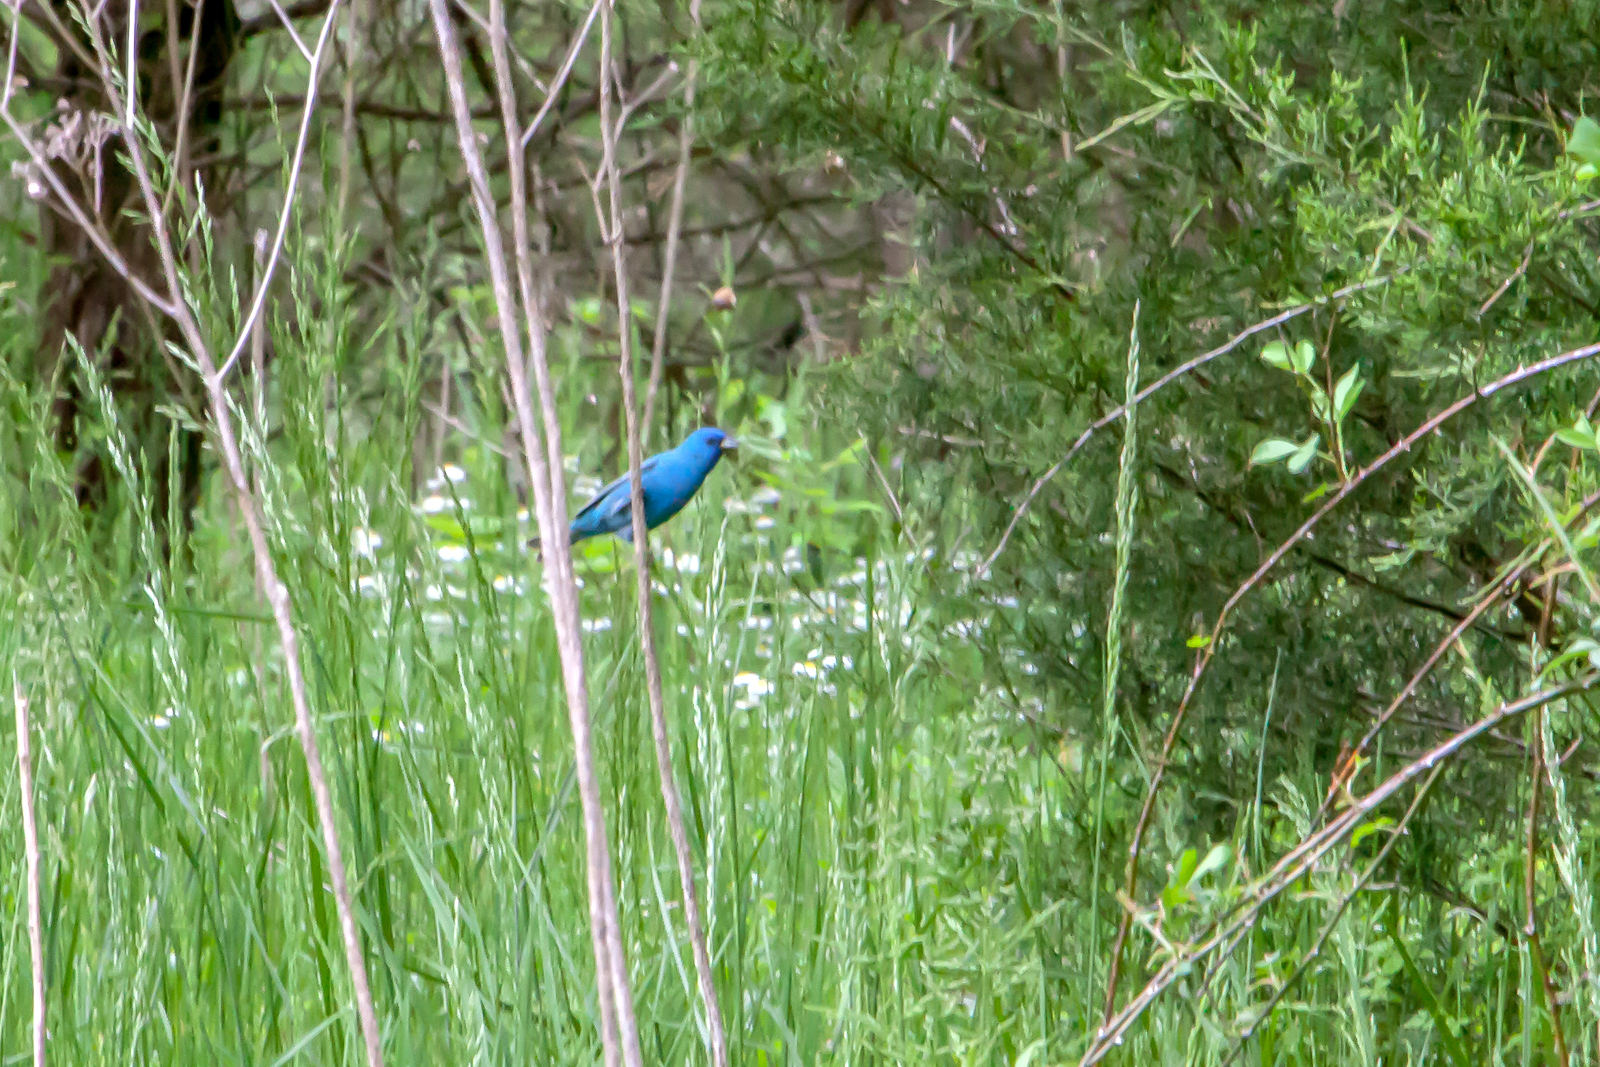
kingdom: Animalia
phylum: Chordata
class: Aves
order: Passeriformes
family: Cardinalidae
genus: Passerina
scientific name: Passerina cyanea
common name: Indigo bunting
